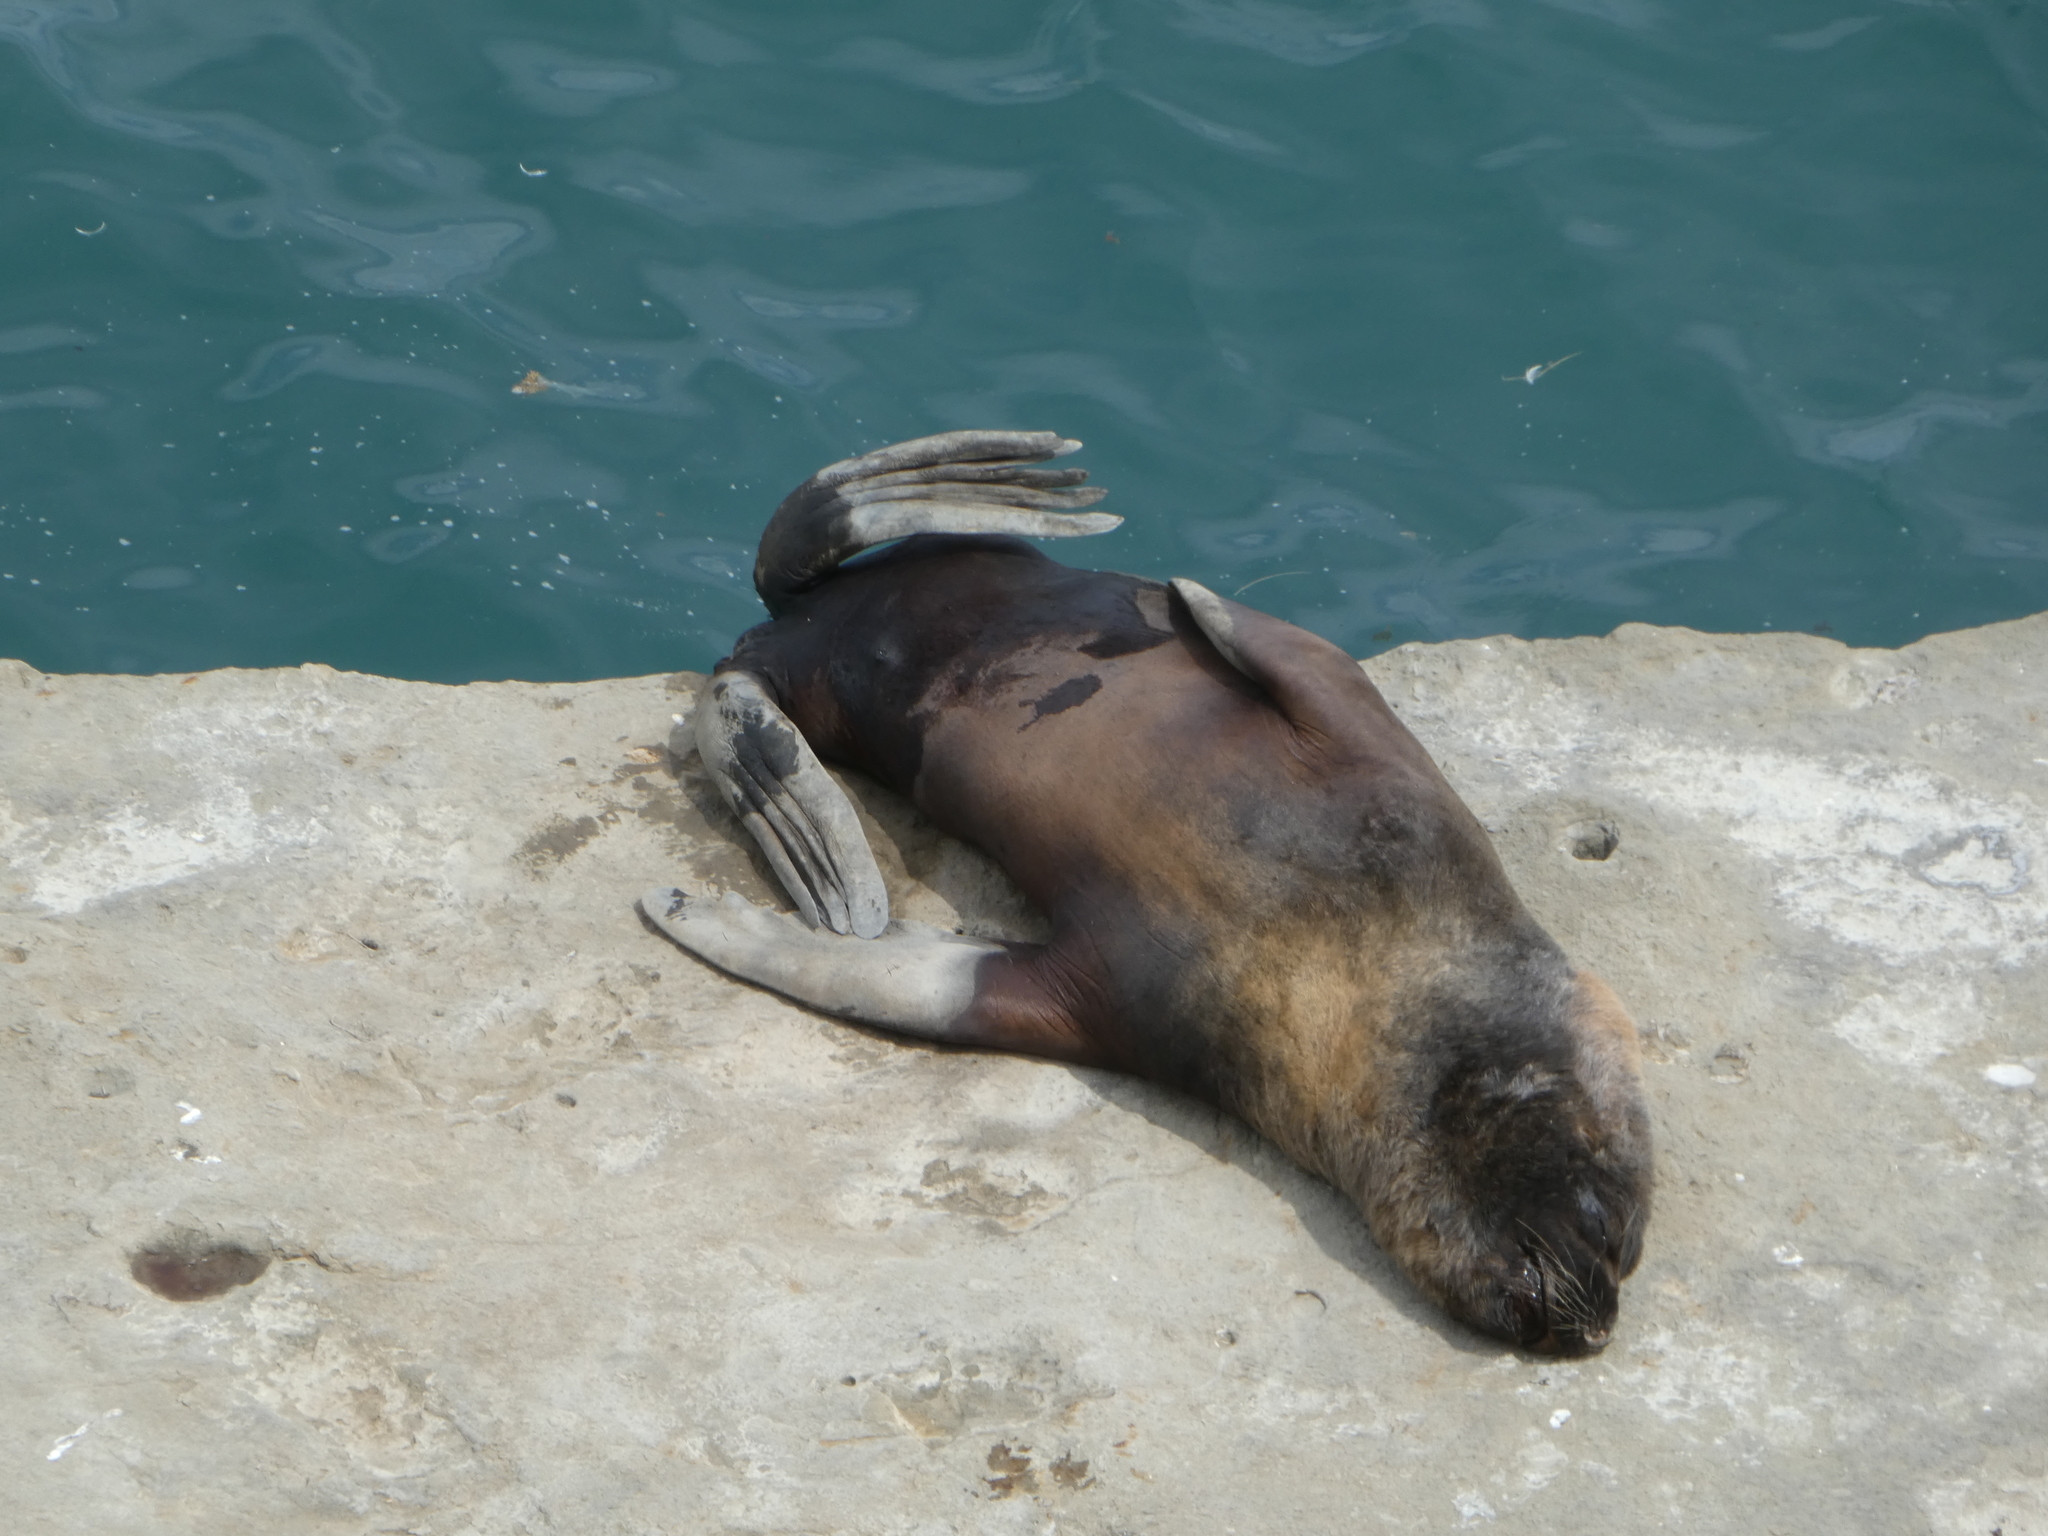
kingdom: Animalia
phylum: Chordata
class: Mammalia
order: Carnivora
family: Otariidae
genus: Otaria
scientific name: Otaria byronia
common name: South american sea lion
